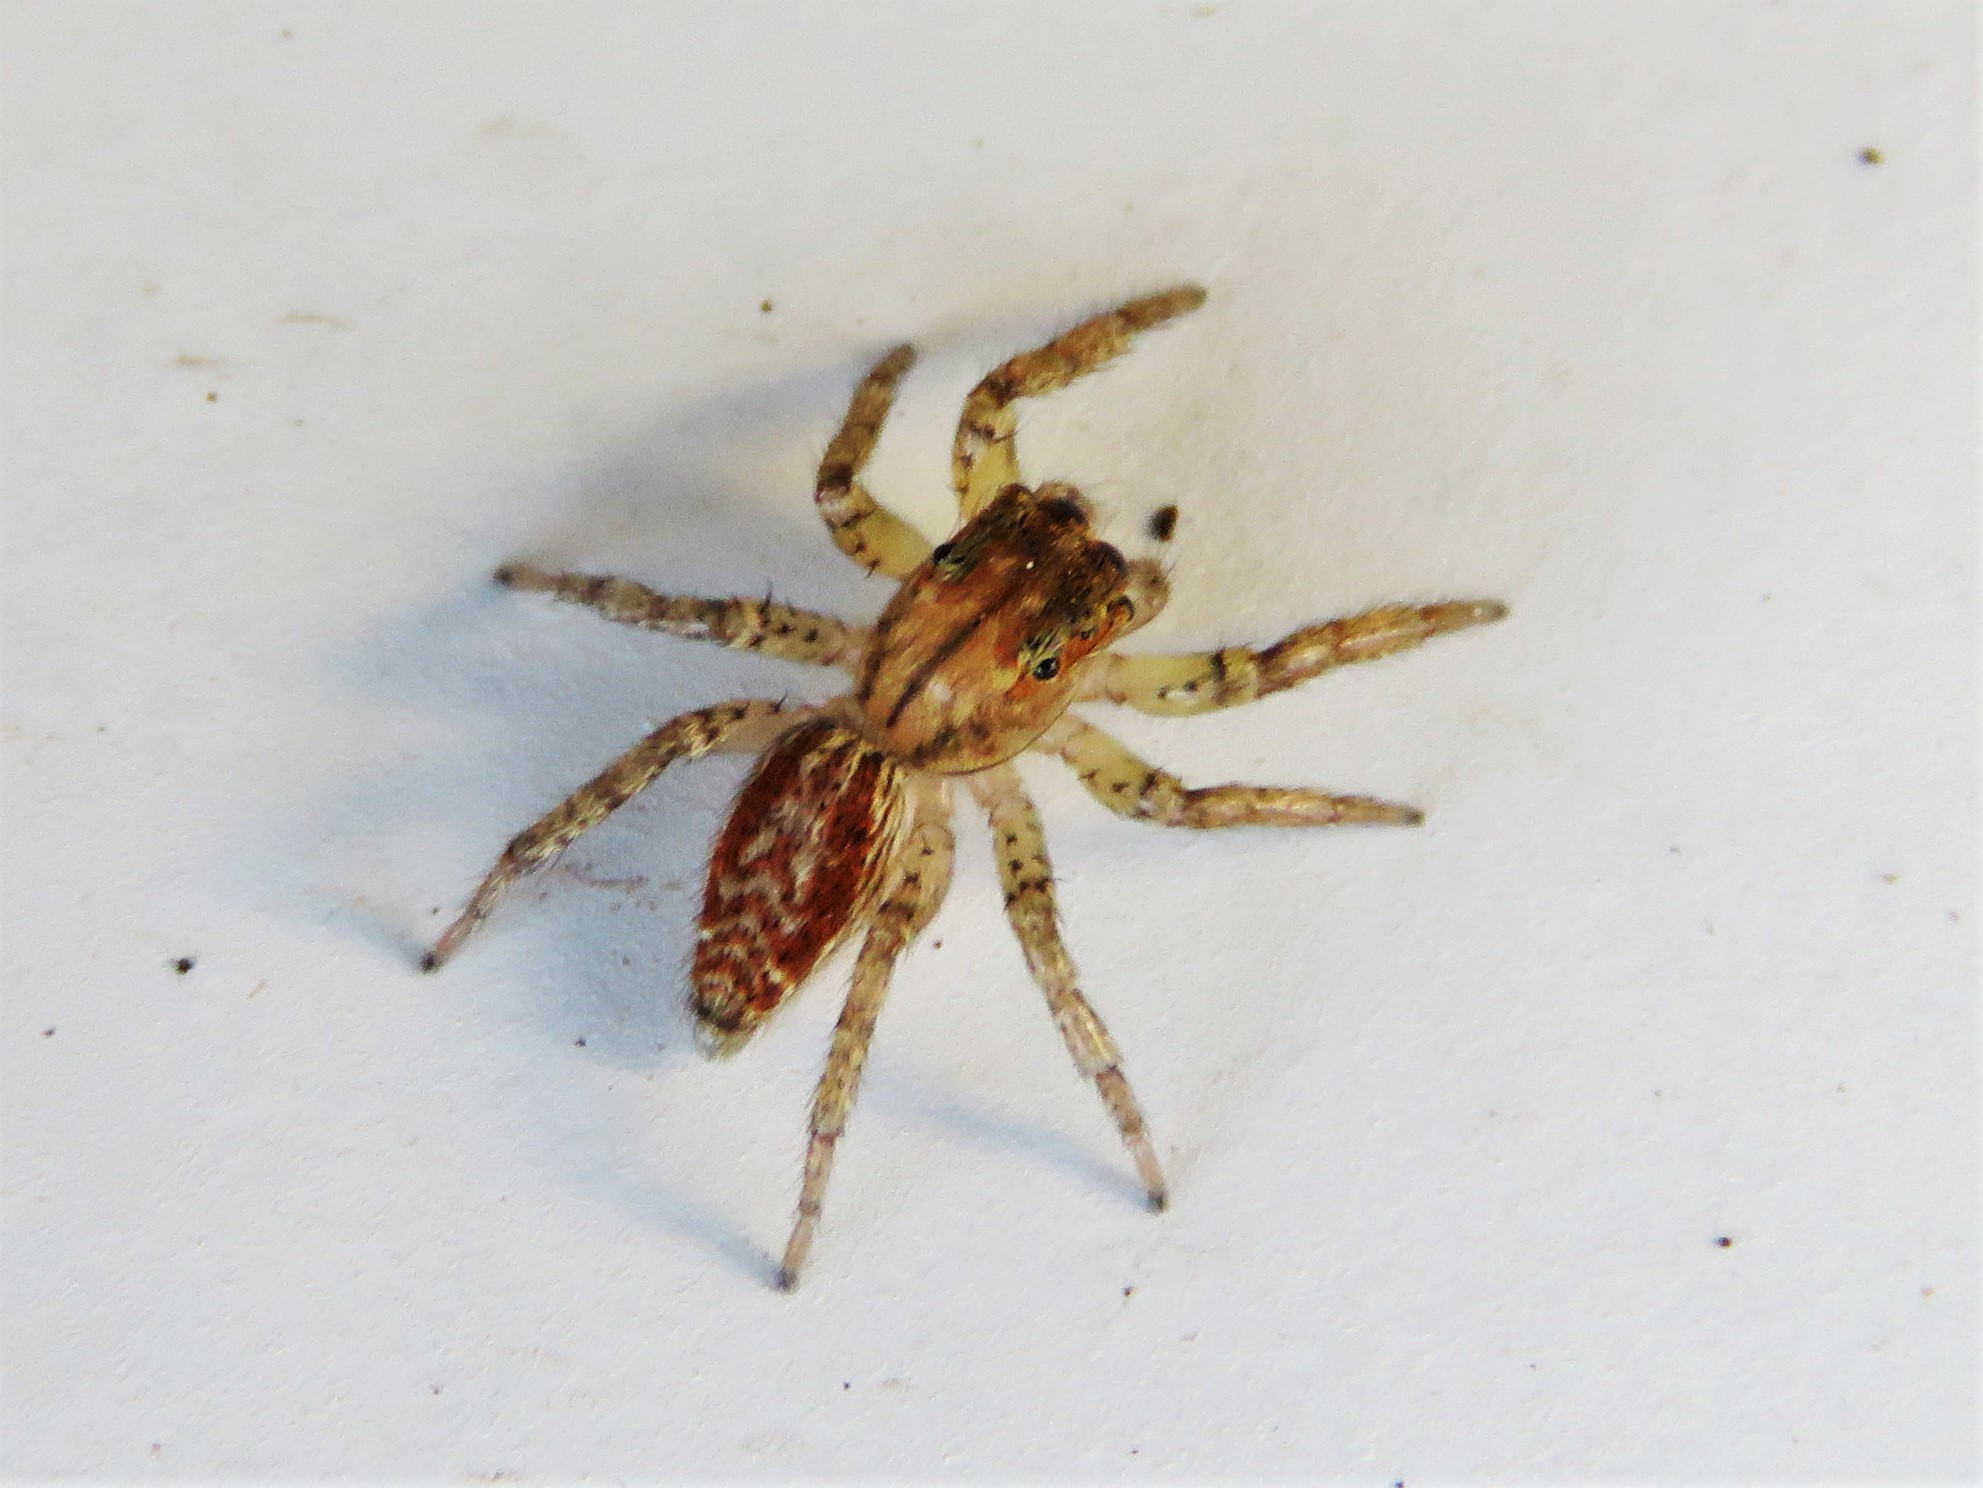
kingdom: Animalia
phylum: Arthropoda
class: Arachnida
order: Araneae
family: Salticidae
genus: Maevia
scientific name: Maevia inclemens
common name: Dimorphic jumper
